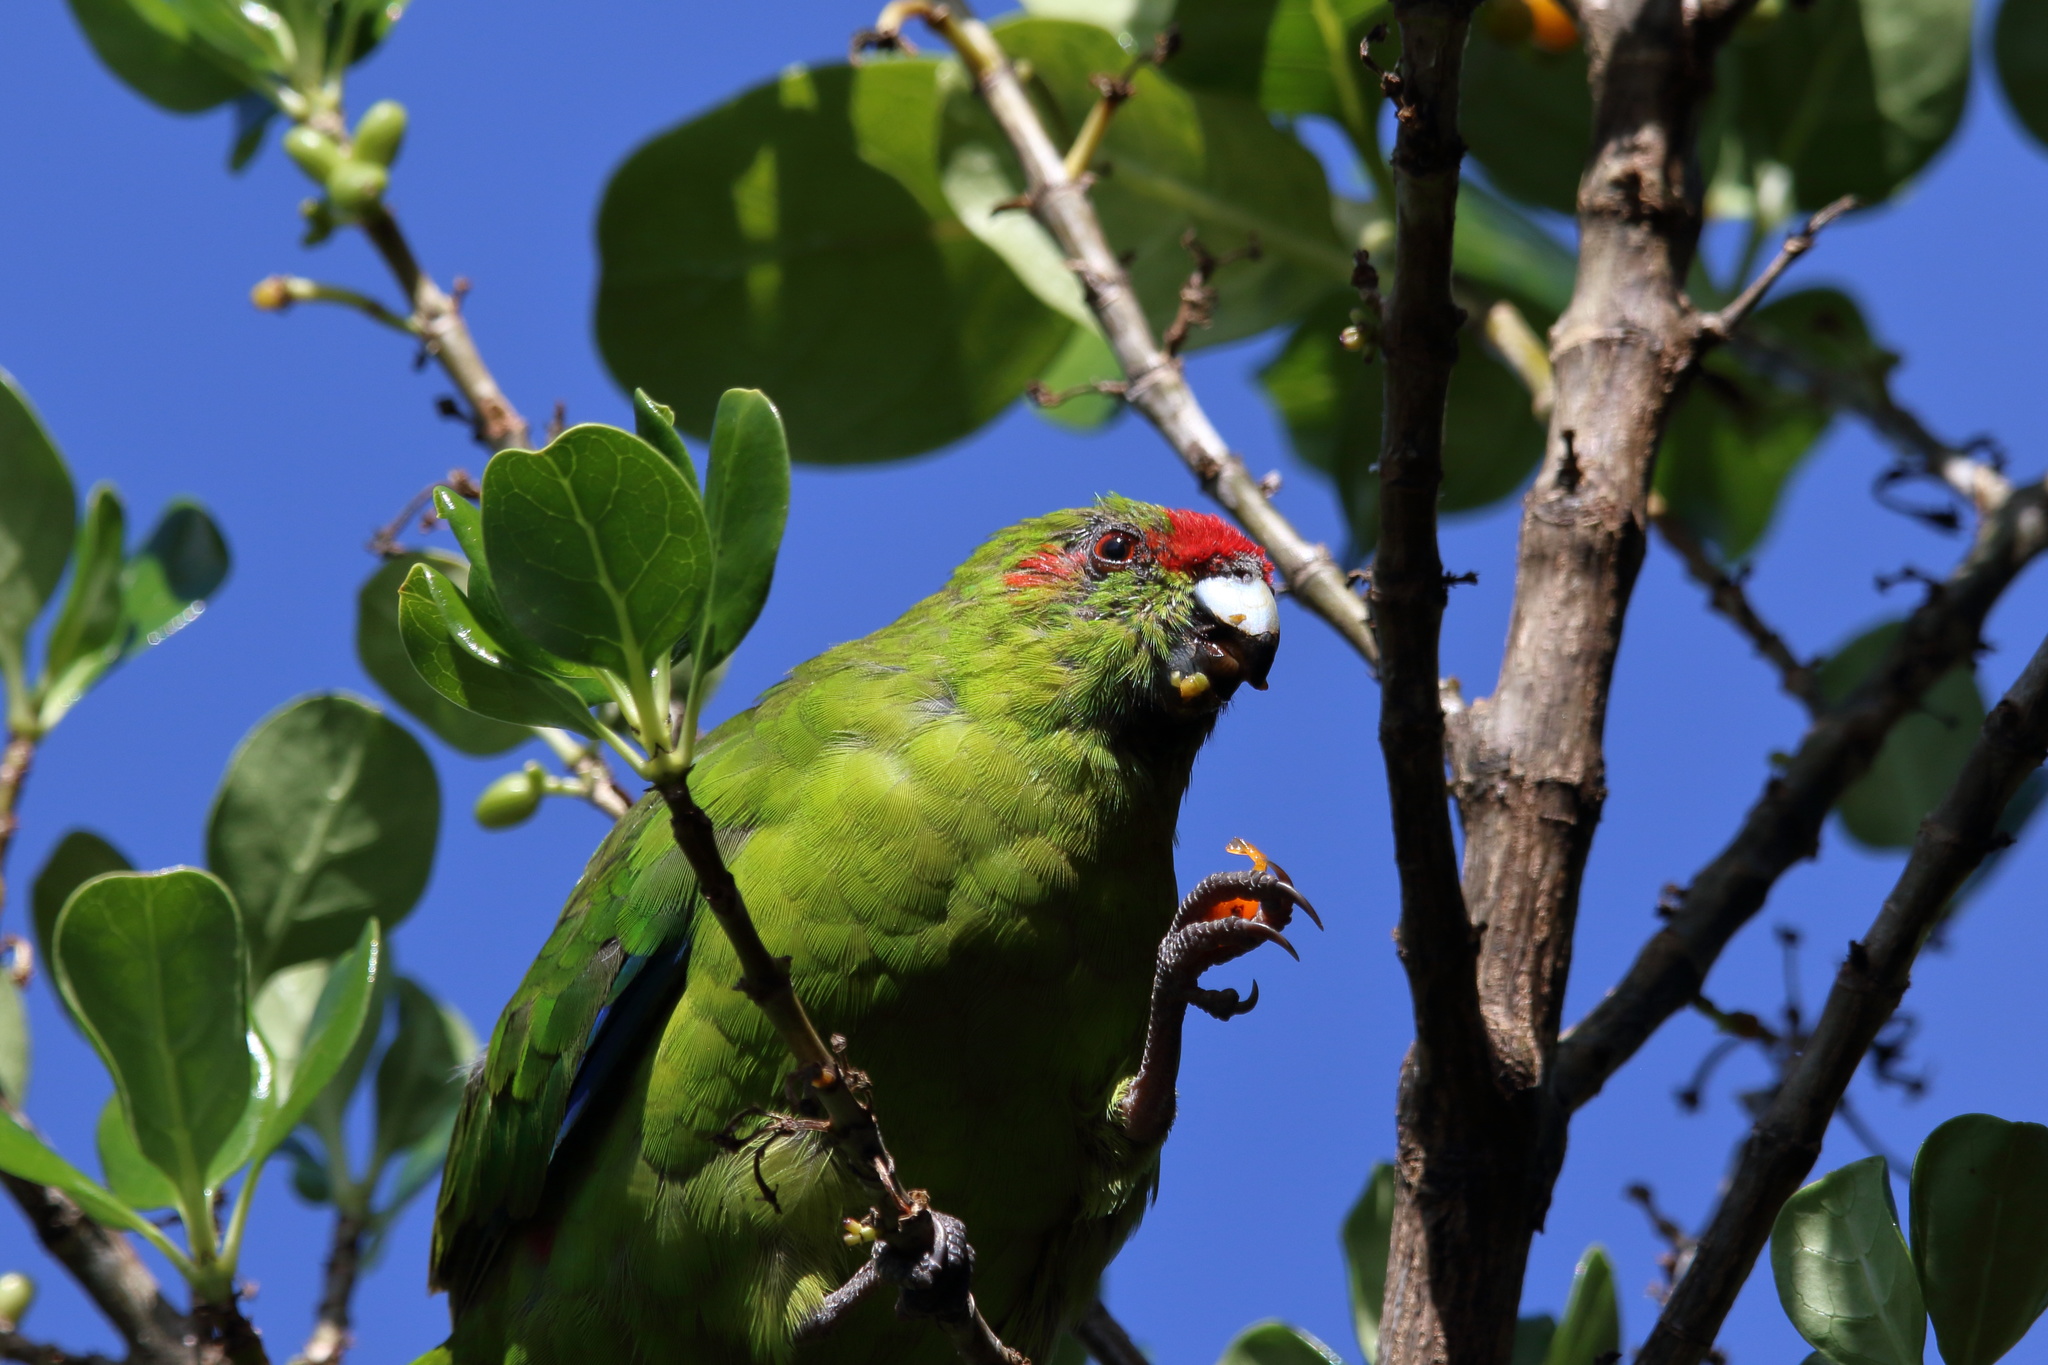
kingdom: Animalia
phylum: Chordata
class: Aves
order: Psittaciformes
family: Psittacidae
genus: Cyanoramphus
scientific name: Cyanoramphus novaezelandiae
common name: Red-fronted parakeet
